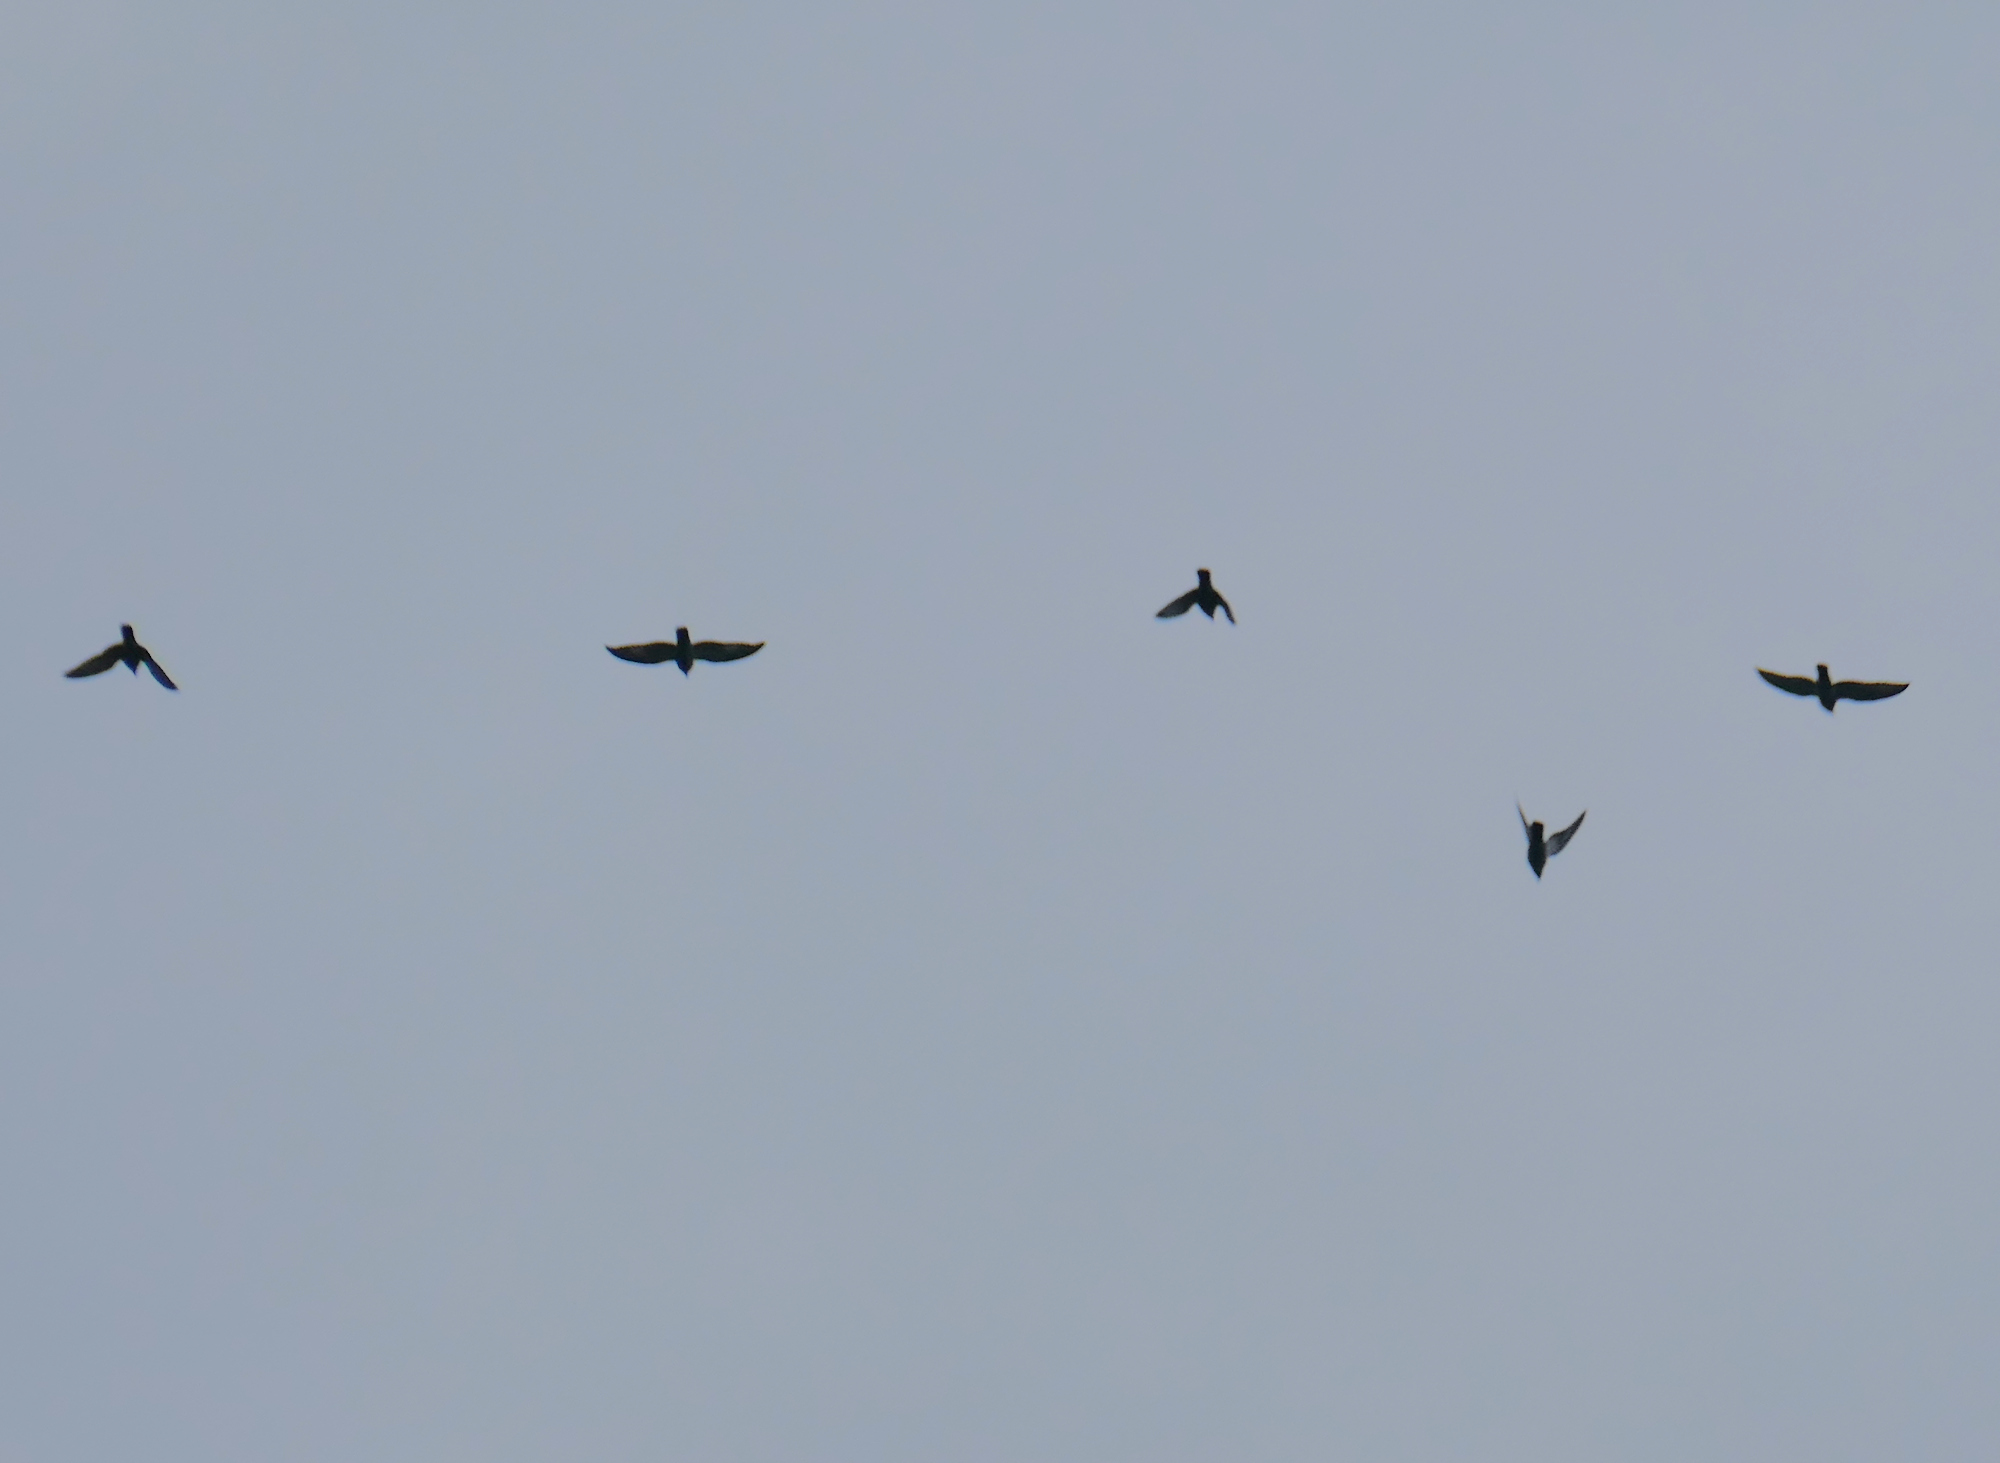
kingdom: Animalia
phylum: Chordata
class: Aves
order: Columbiformes
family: Columbidae
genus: Columba
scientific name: Columba livia
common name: Rock pigeon
